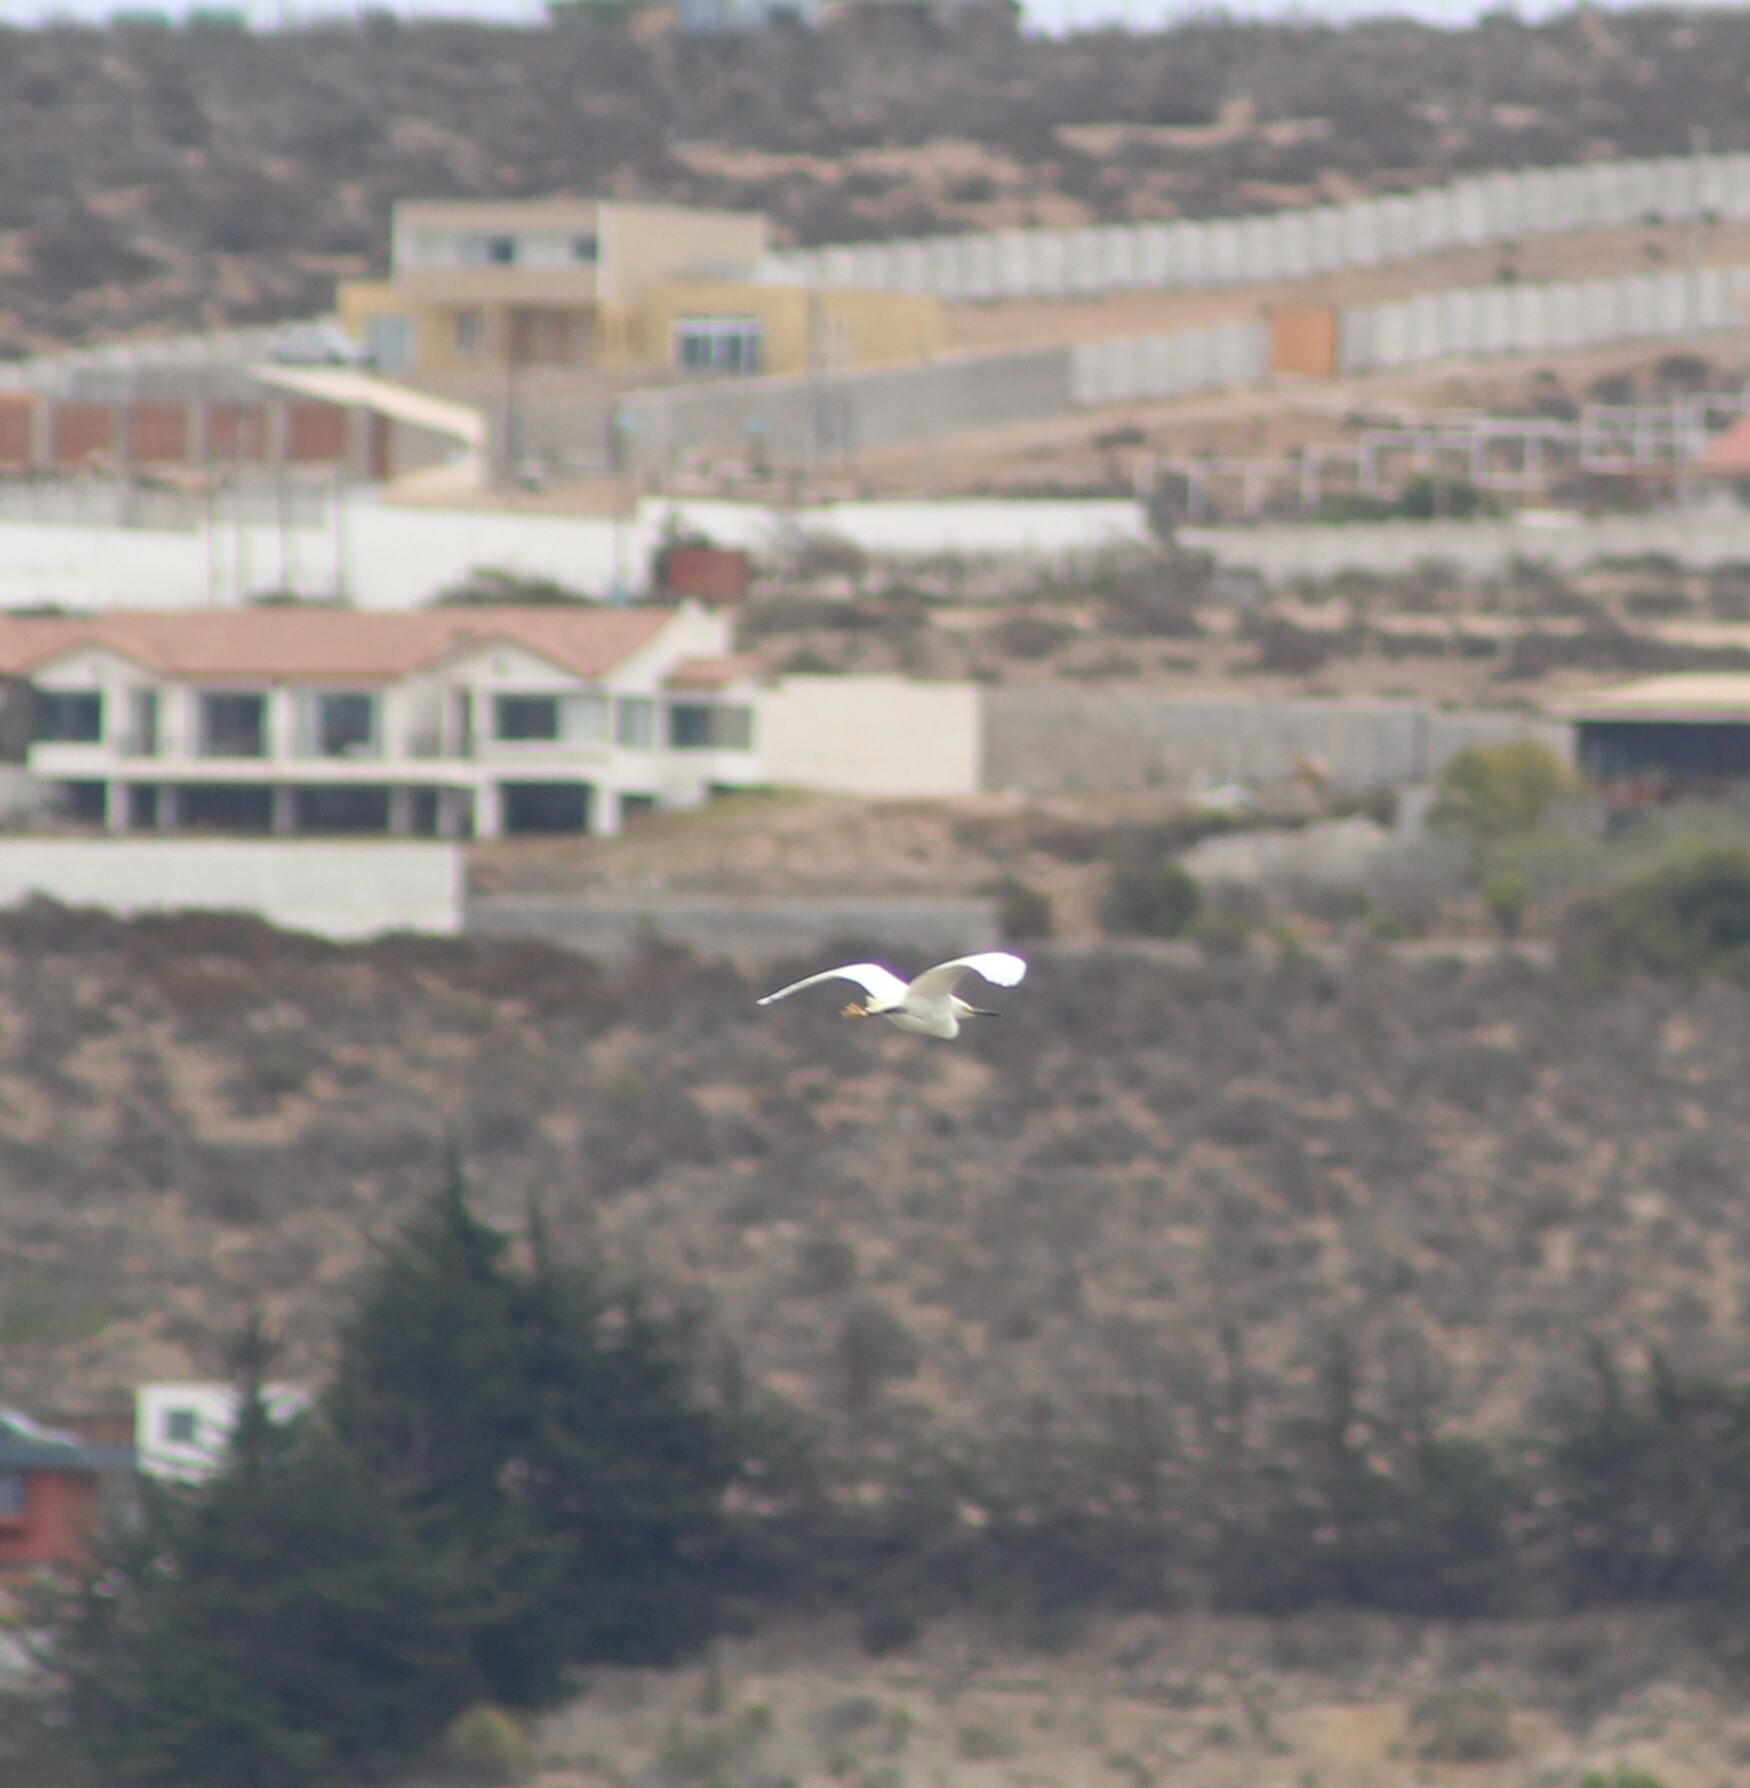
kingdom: Animalia
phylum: Chordata
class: Aves
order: Pelecaniformes
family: Ardeidae
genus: Egretta
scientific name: Egretta thula
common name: Snowy egret
